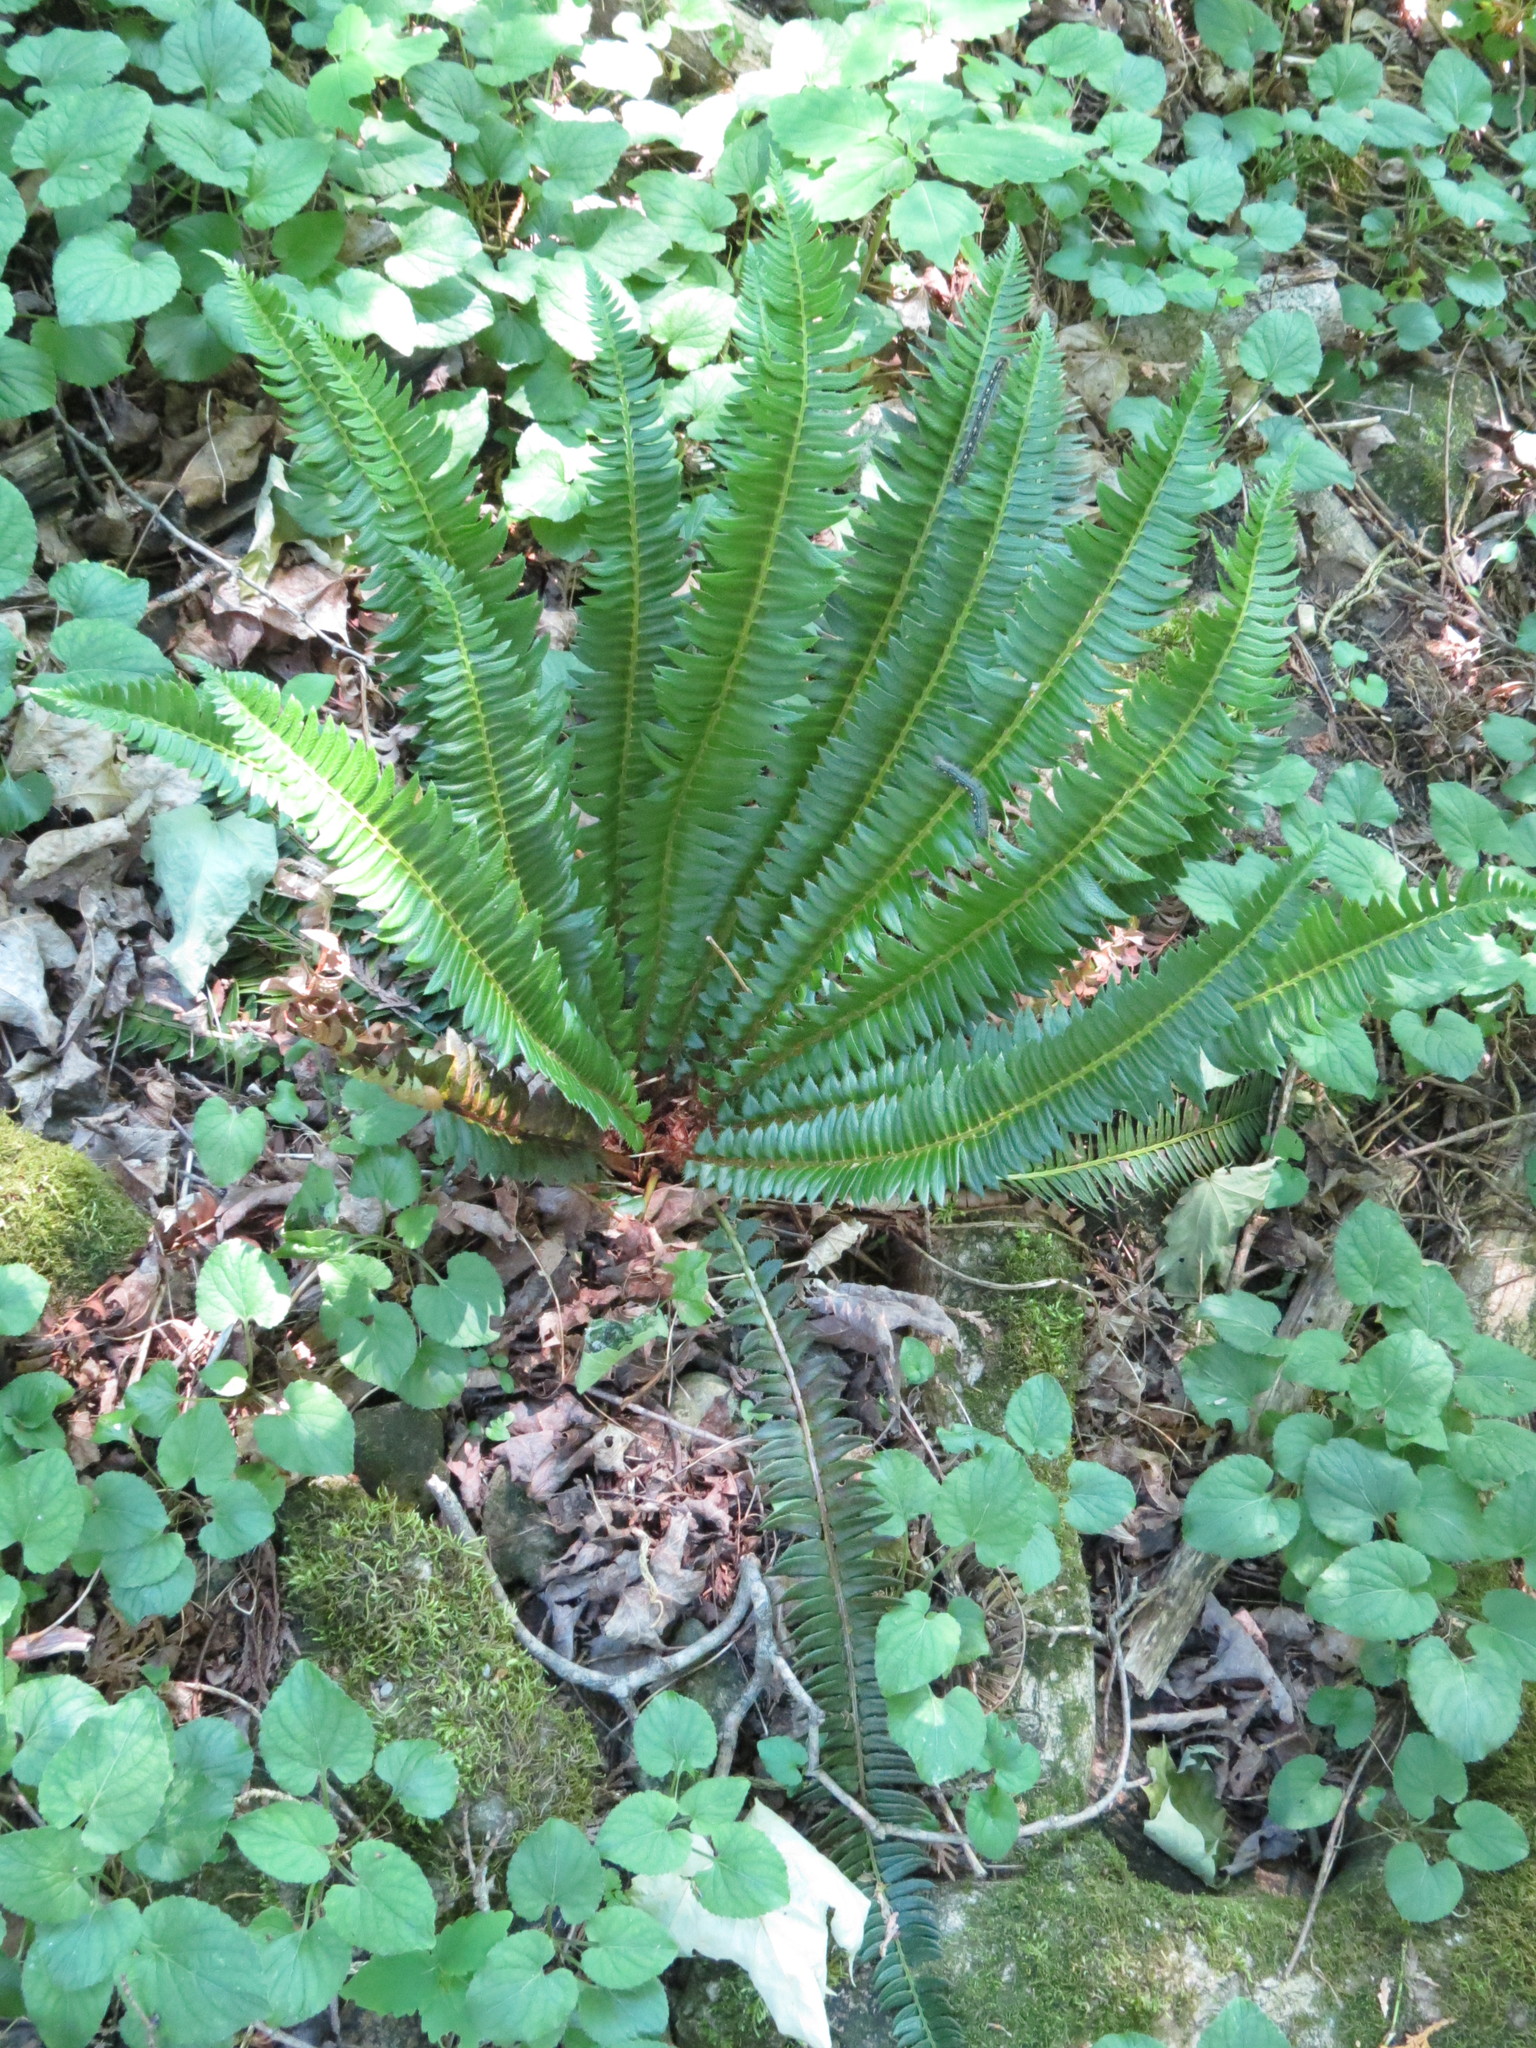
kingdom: Plantae
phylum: Tracheophyta
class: Polypodiopsida
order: Polypodiales
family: Dryopteridaceae
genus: Polystichum
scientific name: Polystichum lonchitis
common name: Holly fern
